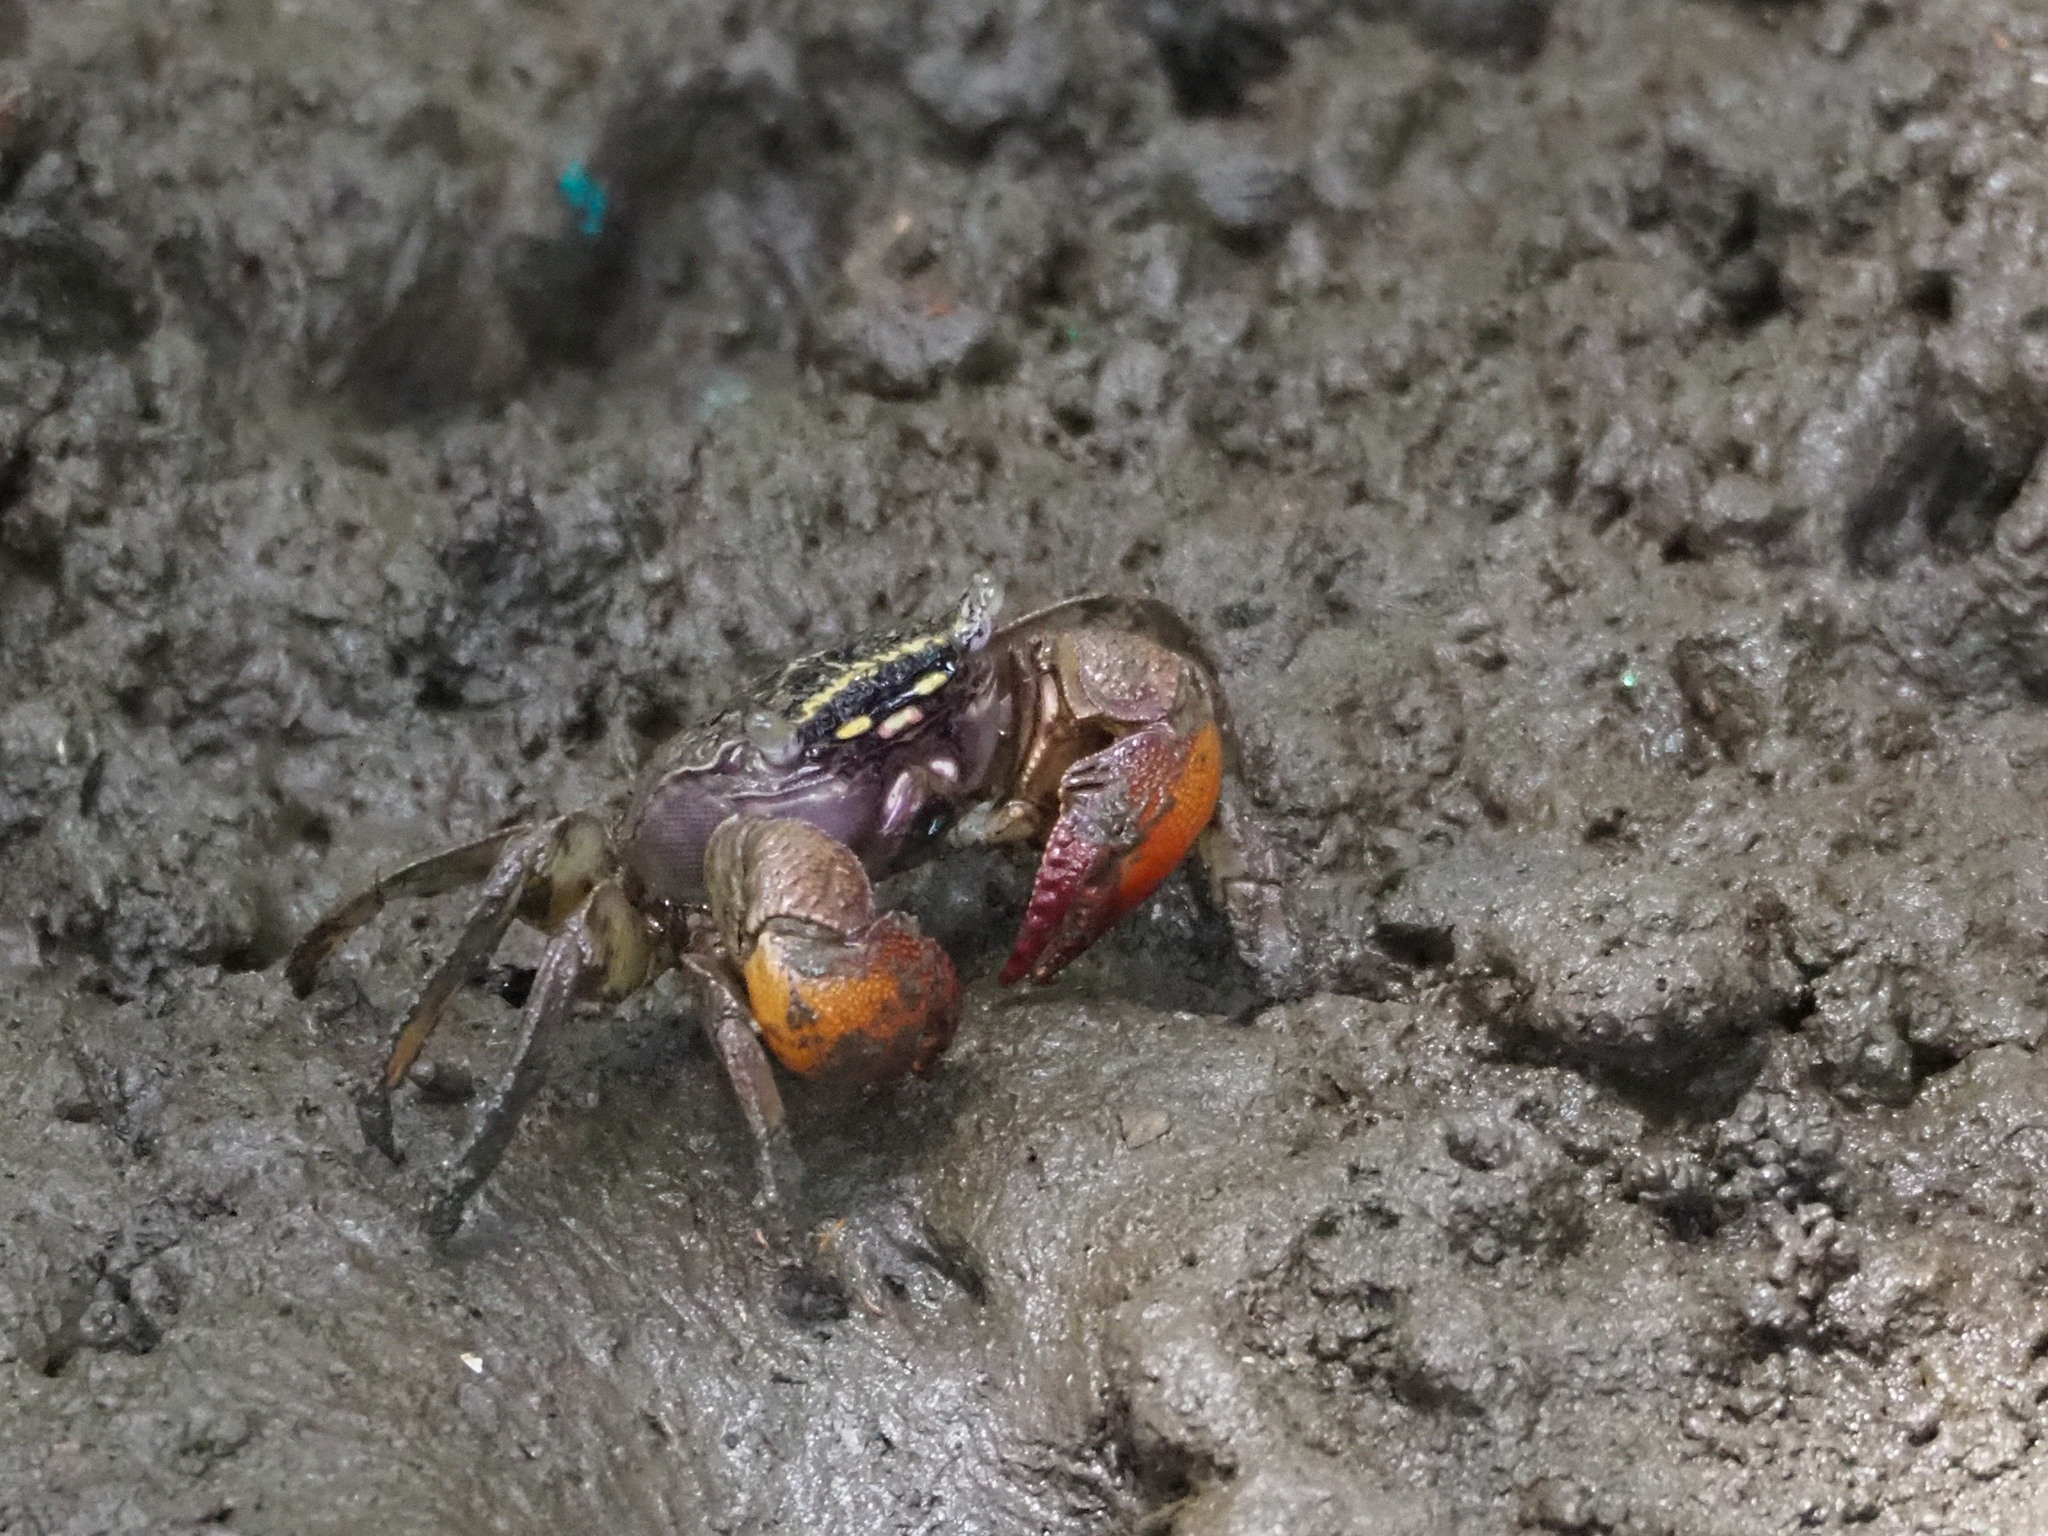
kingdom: Animalia
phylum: Arthropoda
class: Malacostraca
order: Decapoda
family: Sesarmidae
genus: Parasesarma
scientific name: Parasesarma affine
